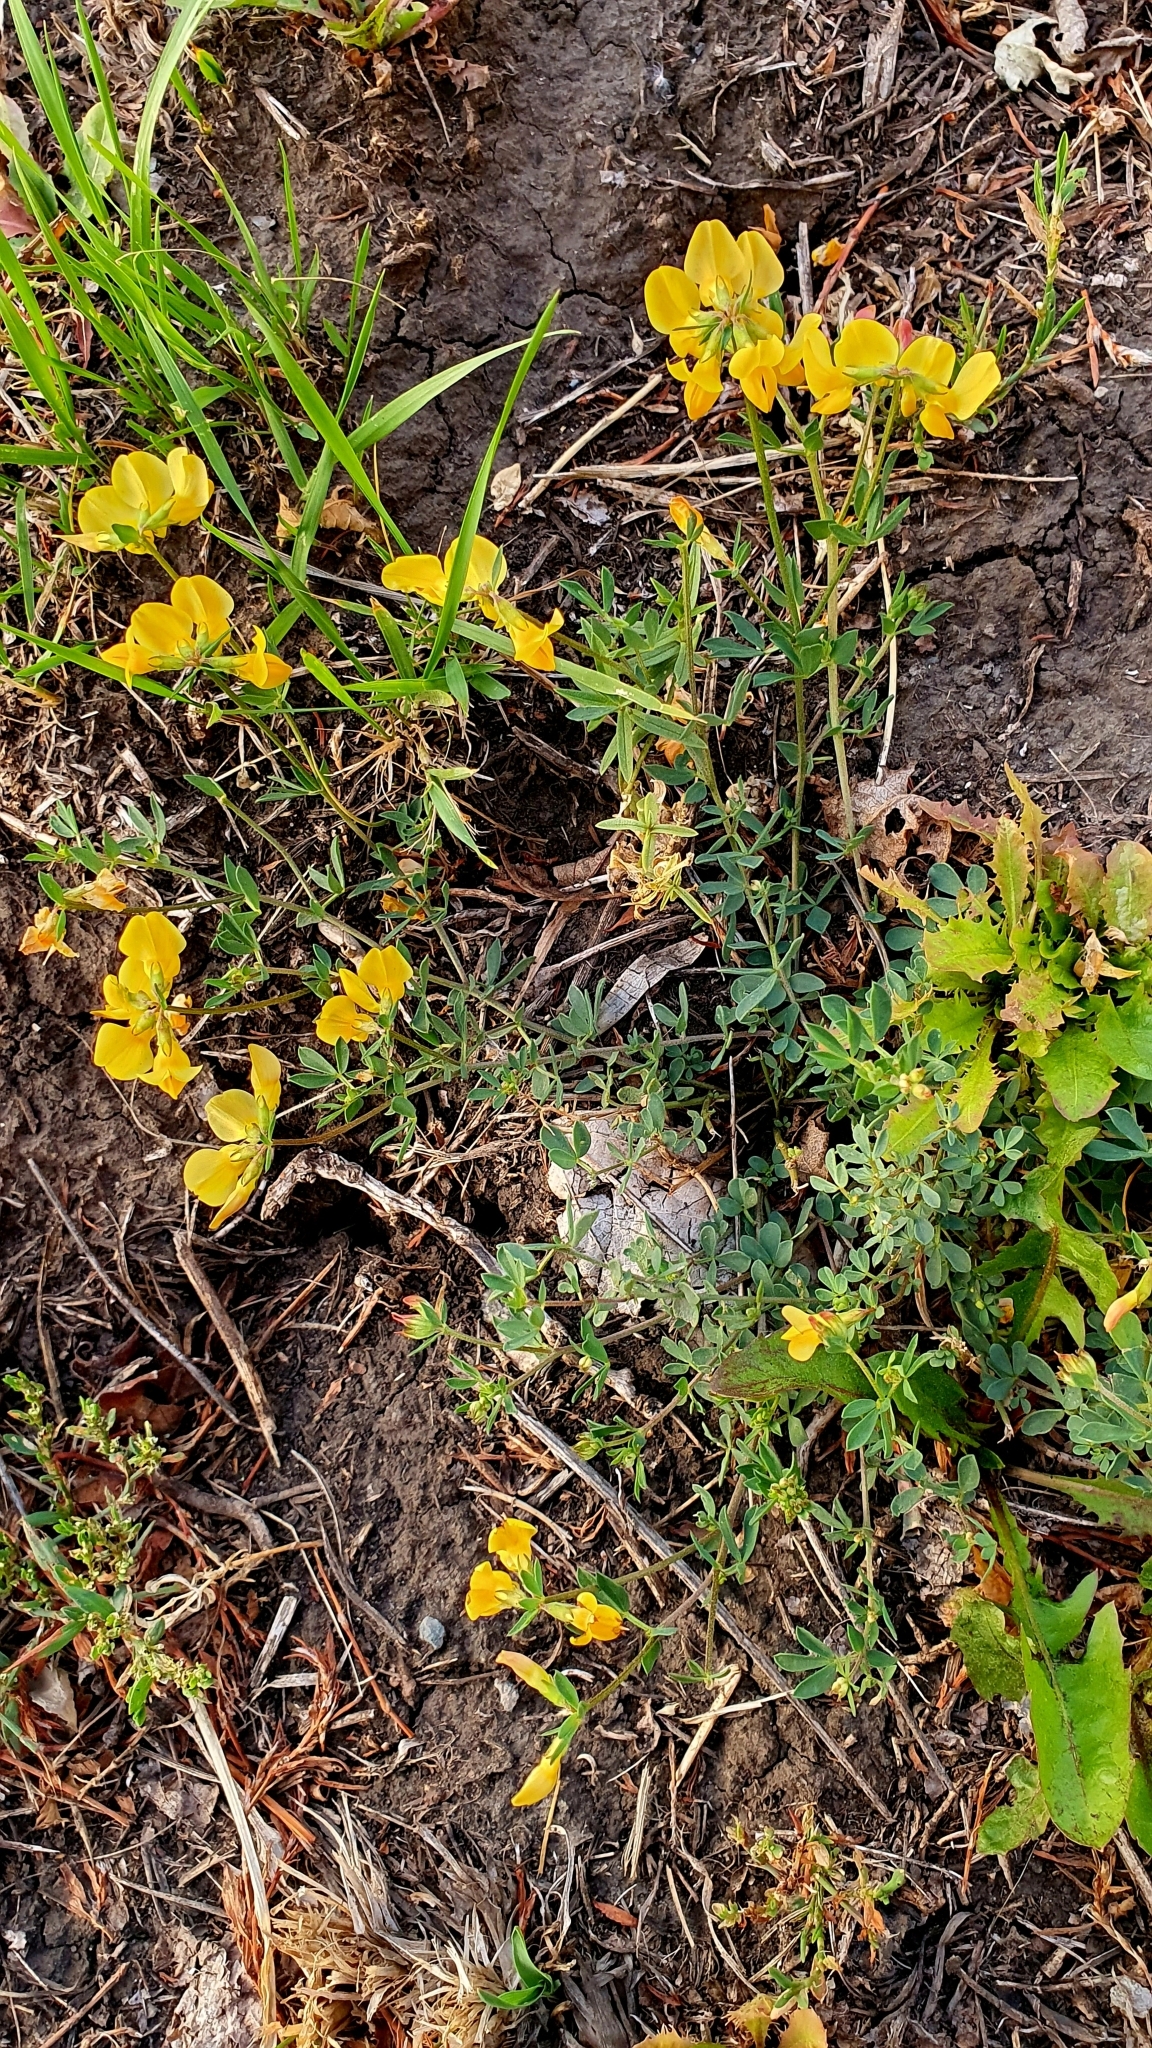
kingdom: Plantae
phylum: Tracheophyta
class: Magnoliopsida
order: Fabales
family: Fabaceae
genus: Lotus
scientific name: Lotus corniculatus
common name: Common bird's-foot-trefoil
